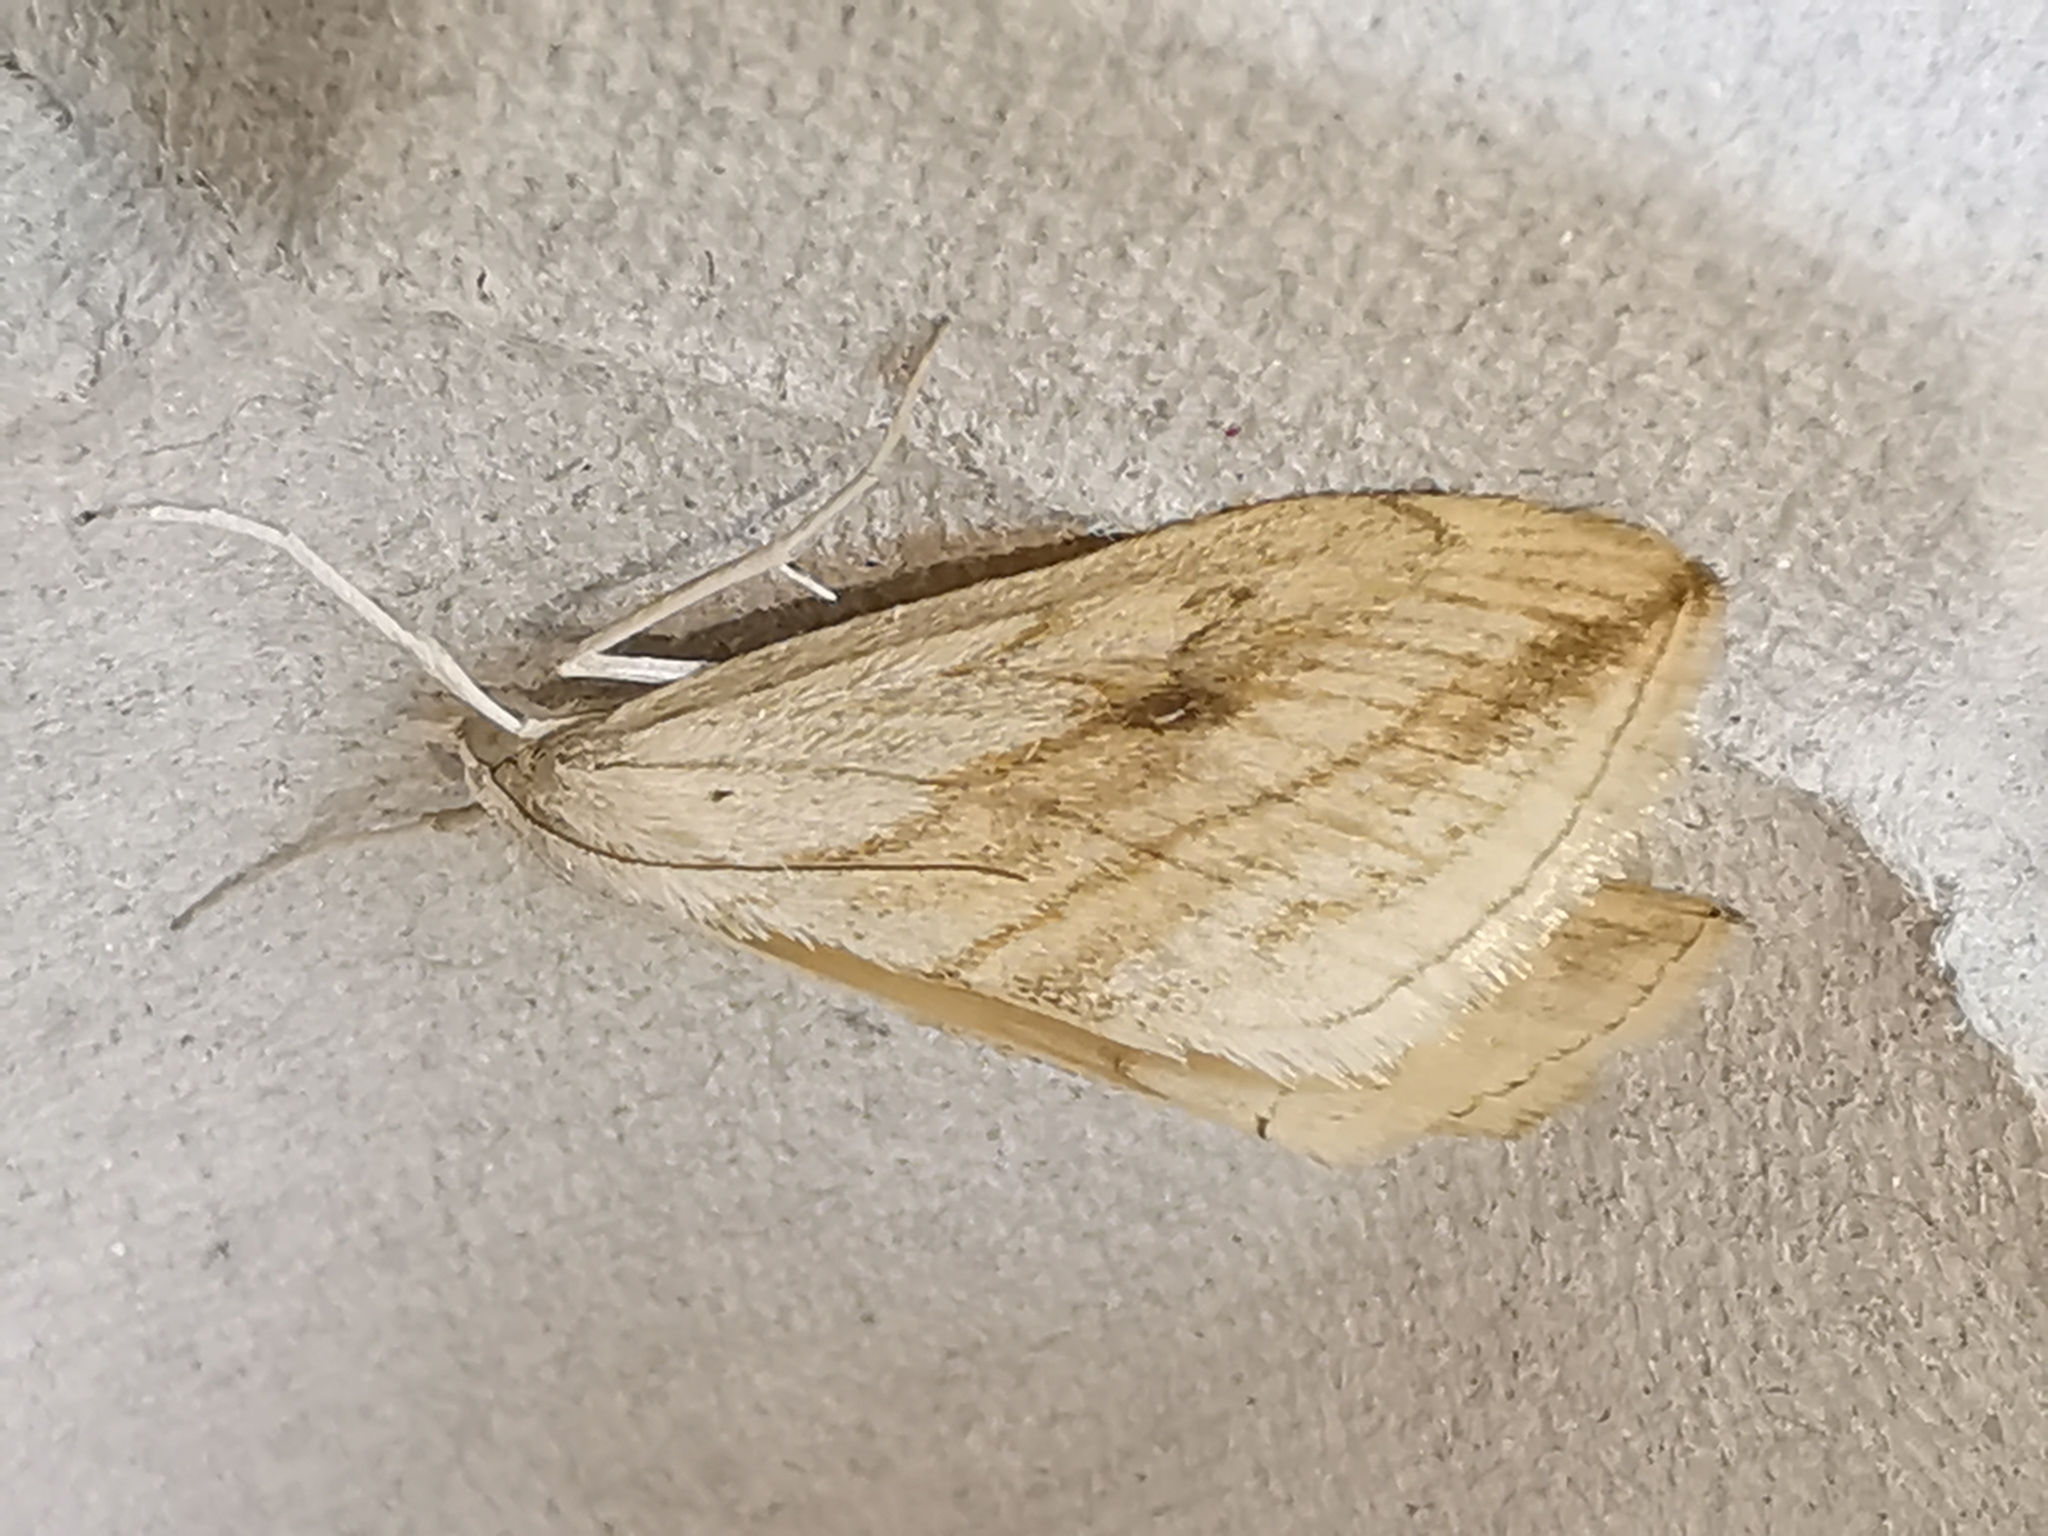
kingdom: Animalia
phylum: Arthropoda
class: Insecta
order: Lepidoptera
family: Crambidae
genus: Evergestis
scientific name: Evergestis forficalis
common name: Garden pebble
